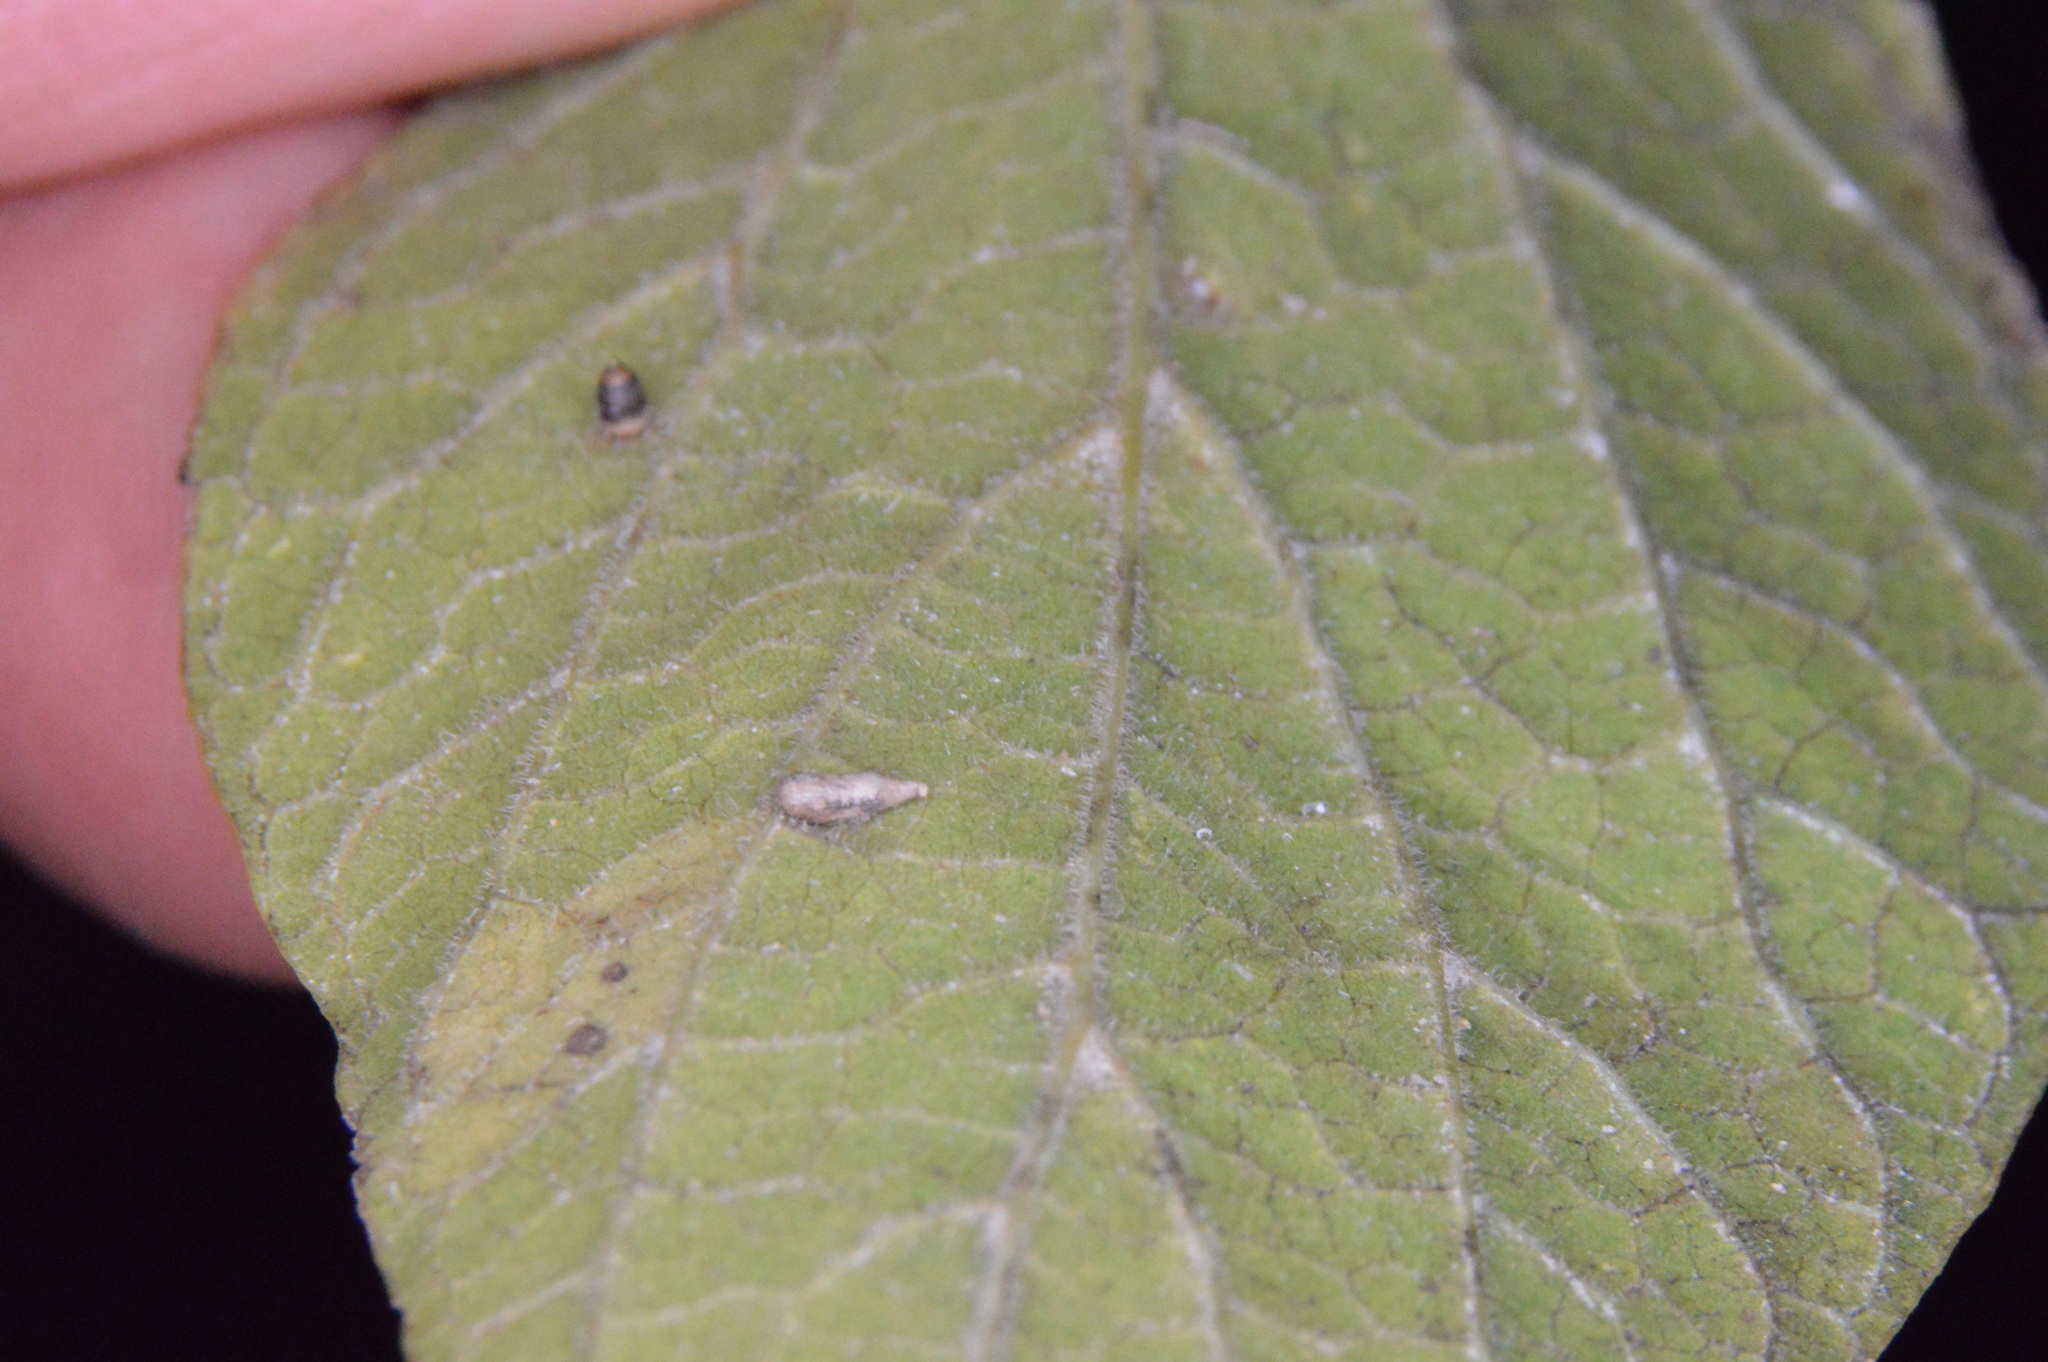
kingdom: Animalia
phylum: Arthropoda
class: Insecta
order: Diptera
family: Cecidomyiidae
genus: Celticecis
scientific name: Celticecis supina
